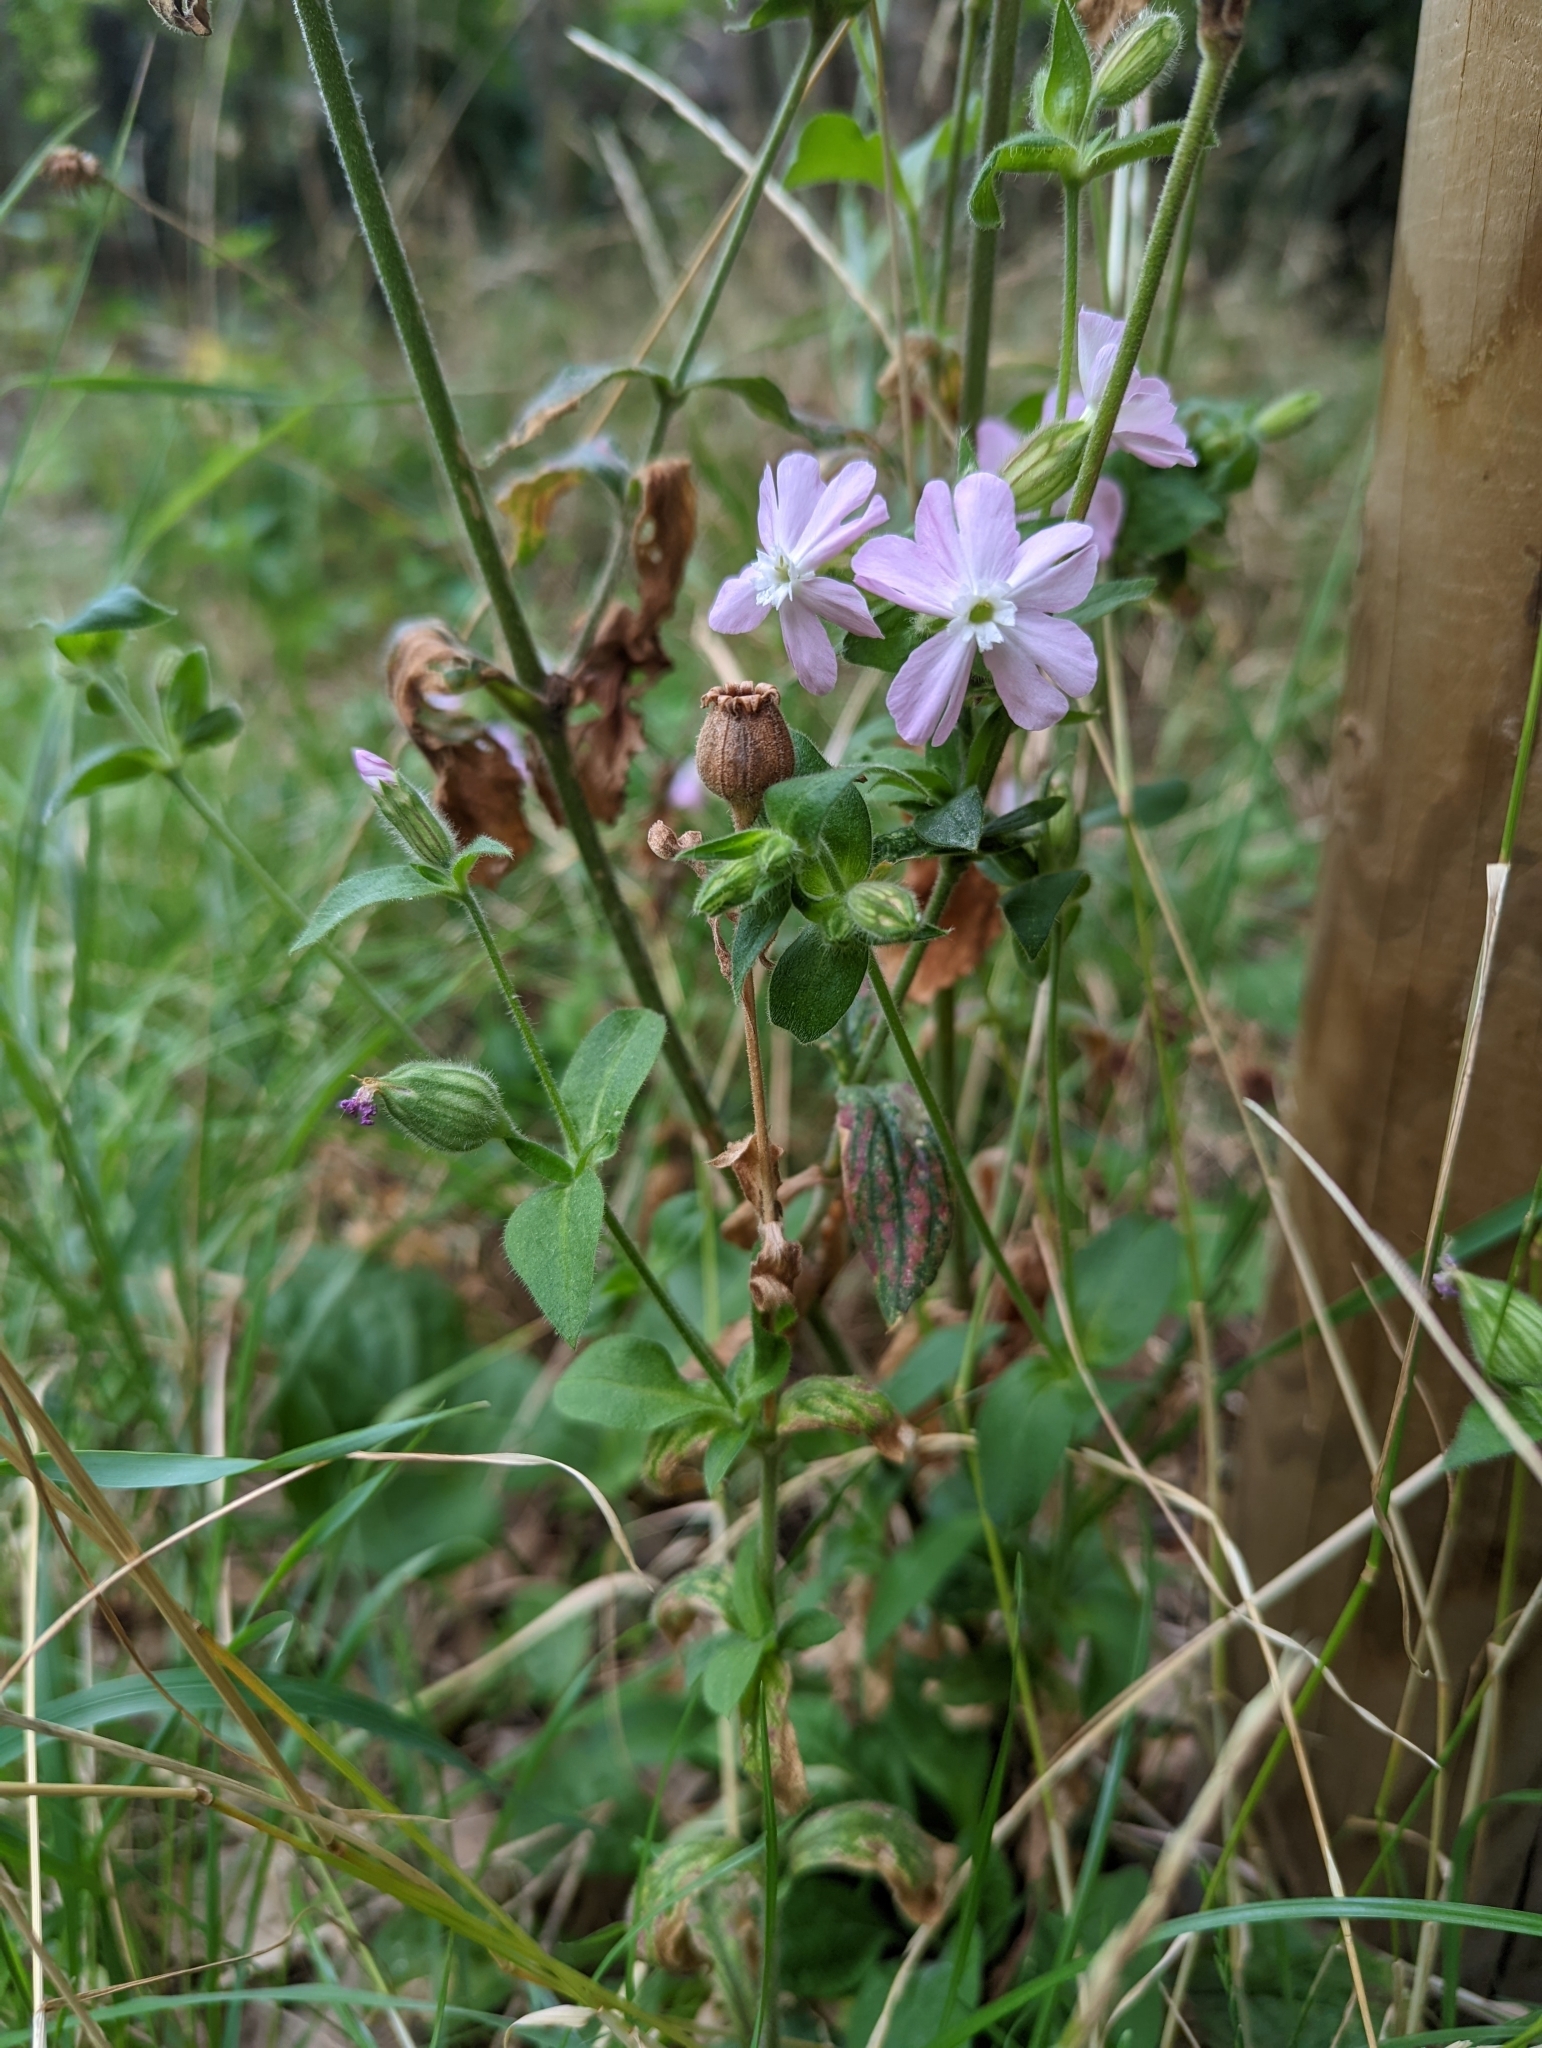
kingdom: Plantae
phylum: Tracheophyta
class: Magnoliopsida
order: Caryophyllales
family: Caryophyllaceae
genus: Silene
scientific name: Silene dioica
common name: Red campion
